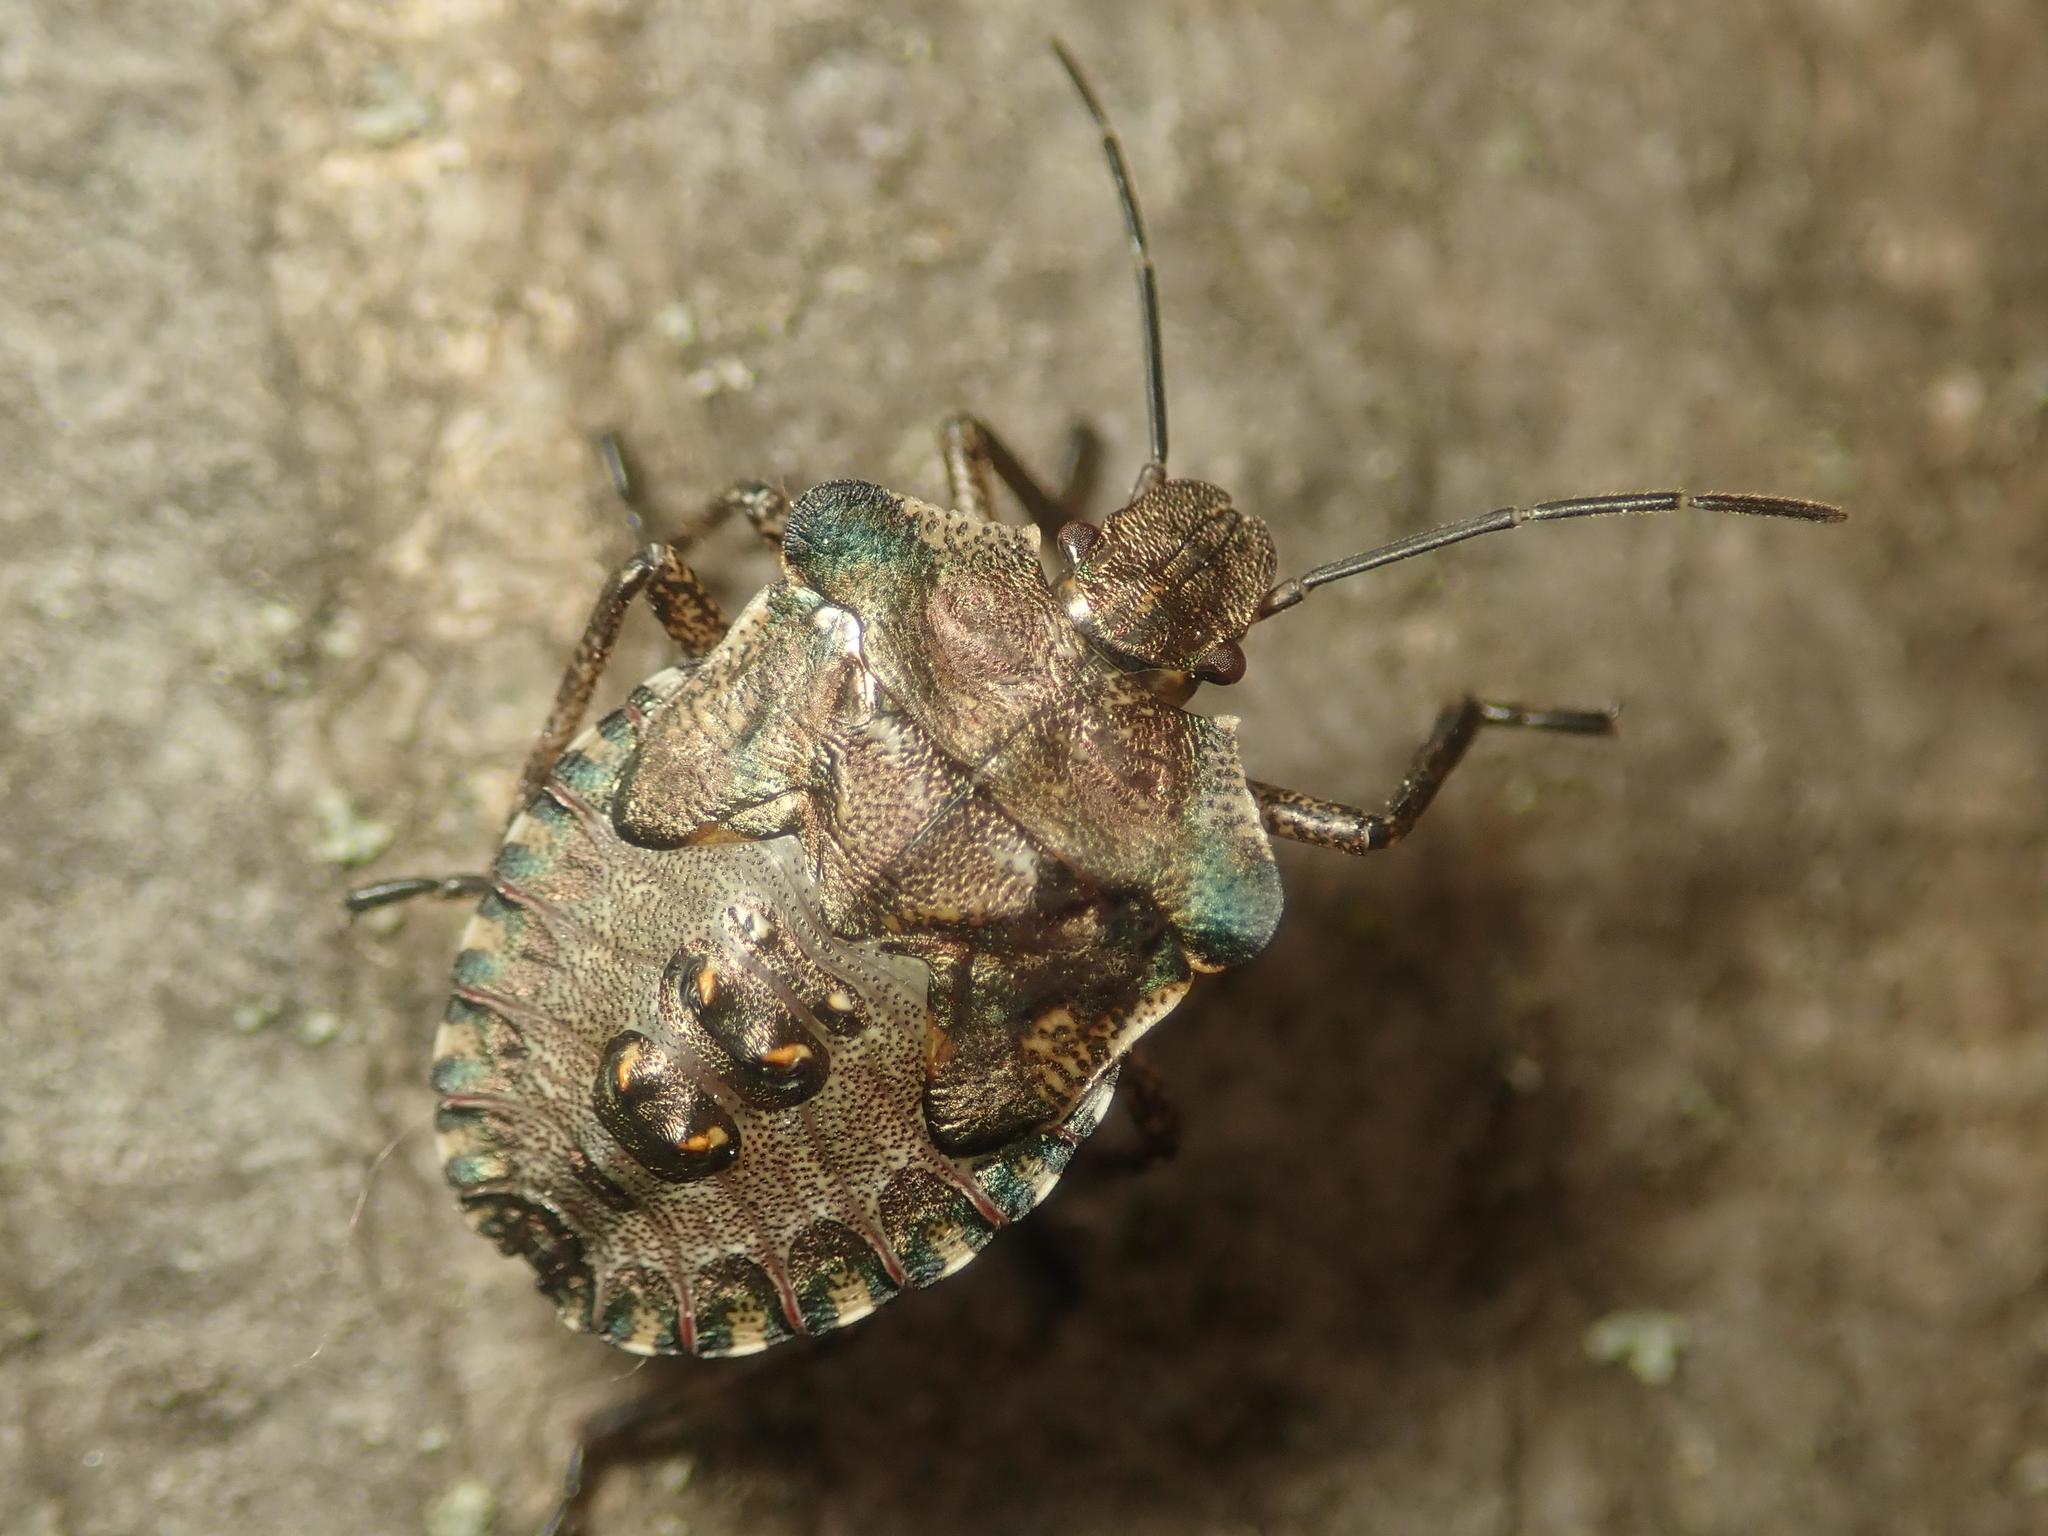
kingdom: Animalia
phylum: Arthropoda
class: Insecta
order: Hemiptera
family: Pentatomidae
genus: Pentatoma
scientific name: Pentatoma rufipes
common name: Forest bug
